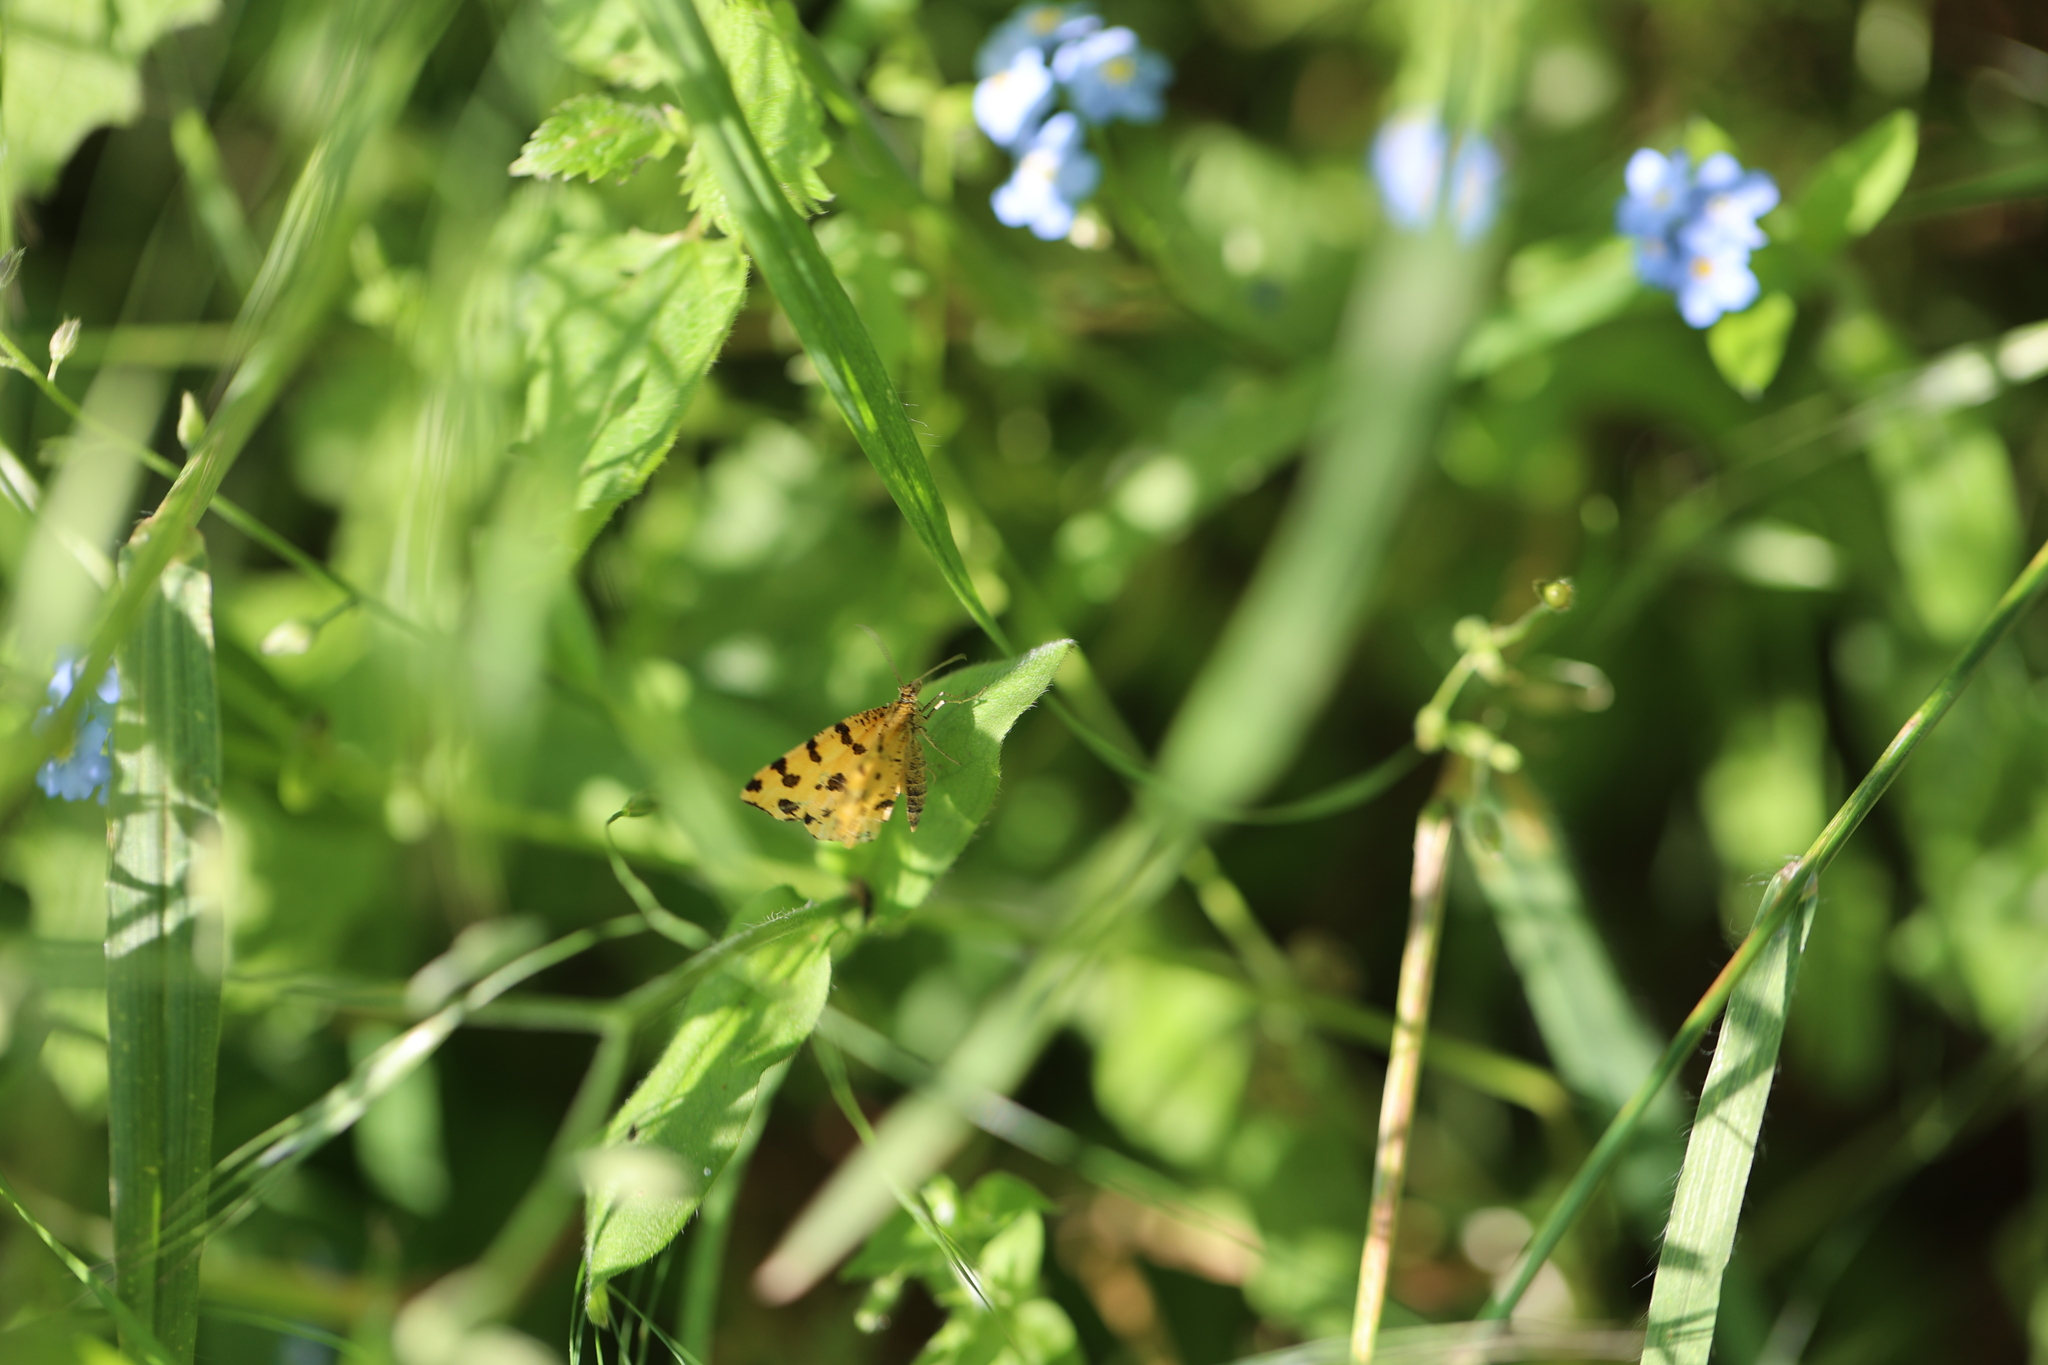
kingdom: Animalia
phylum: Arthropoda
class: Insecta
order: Lepidoptera
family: Geometridae
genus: Pseudopanthera
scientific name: Pseudopanthera macularia
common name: Speckled yellow
